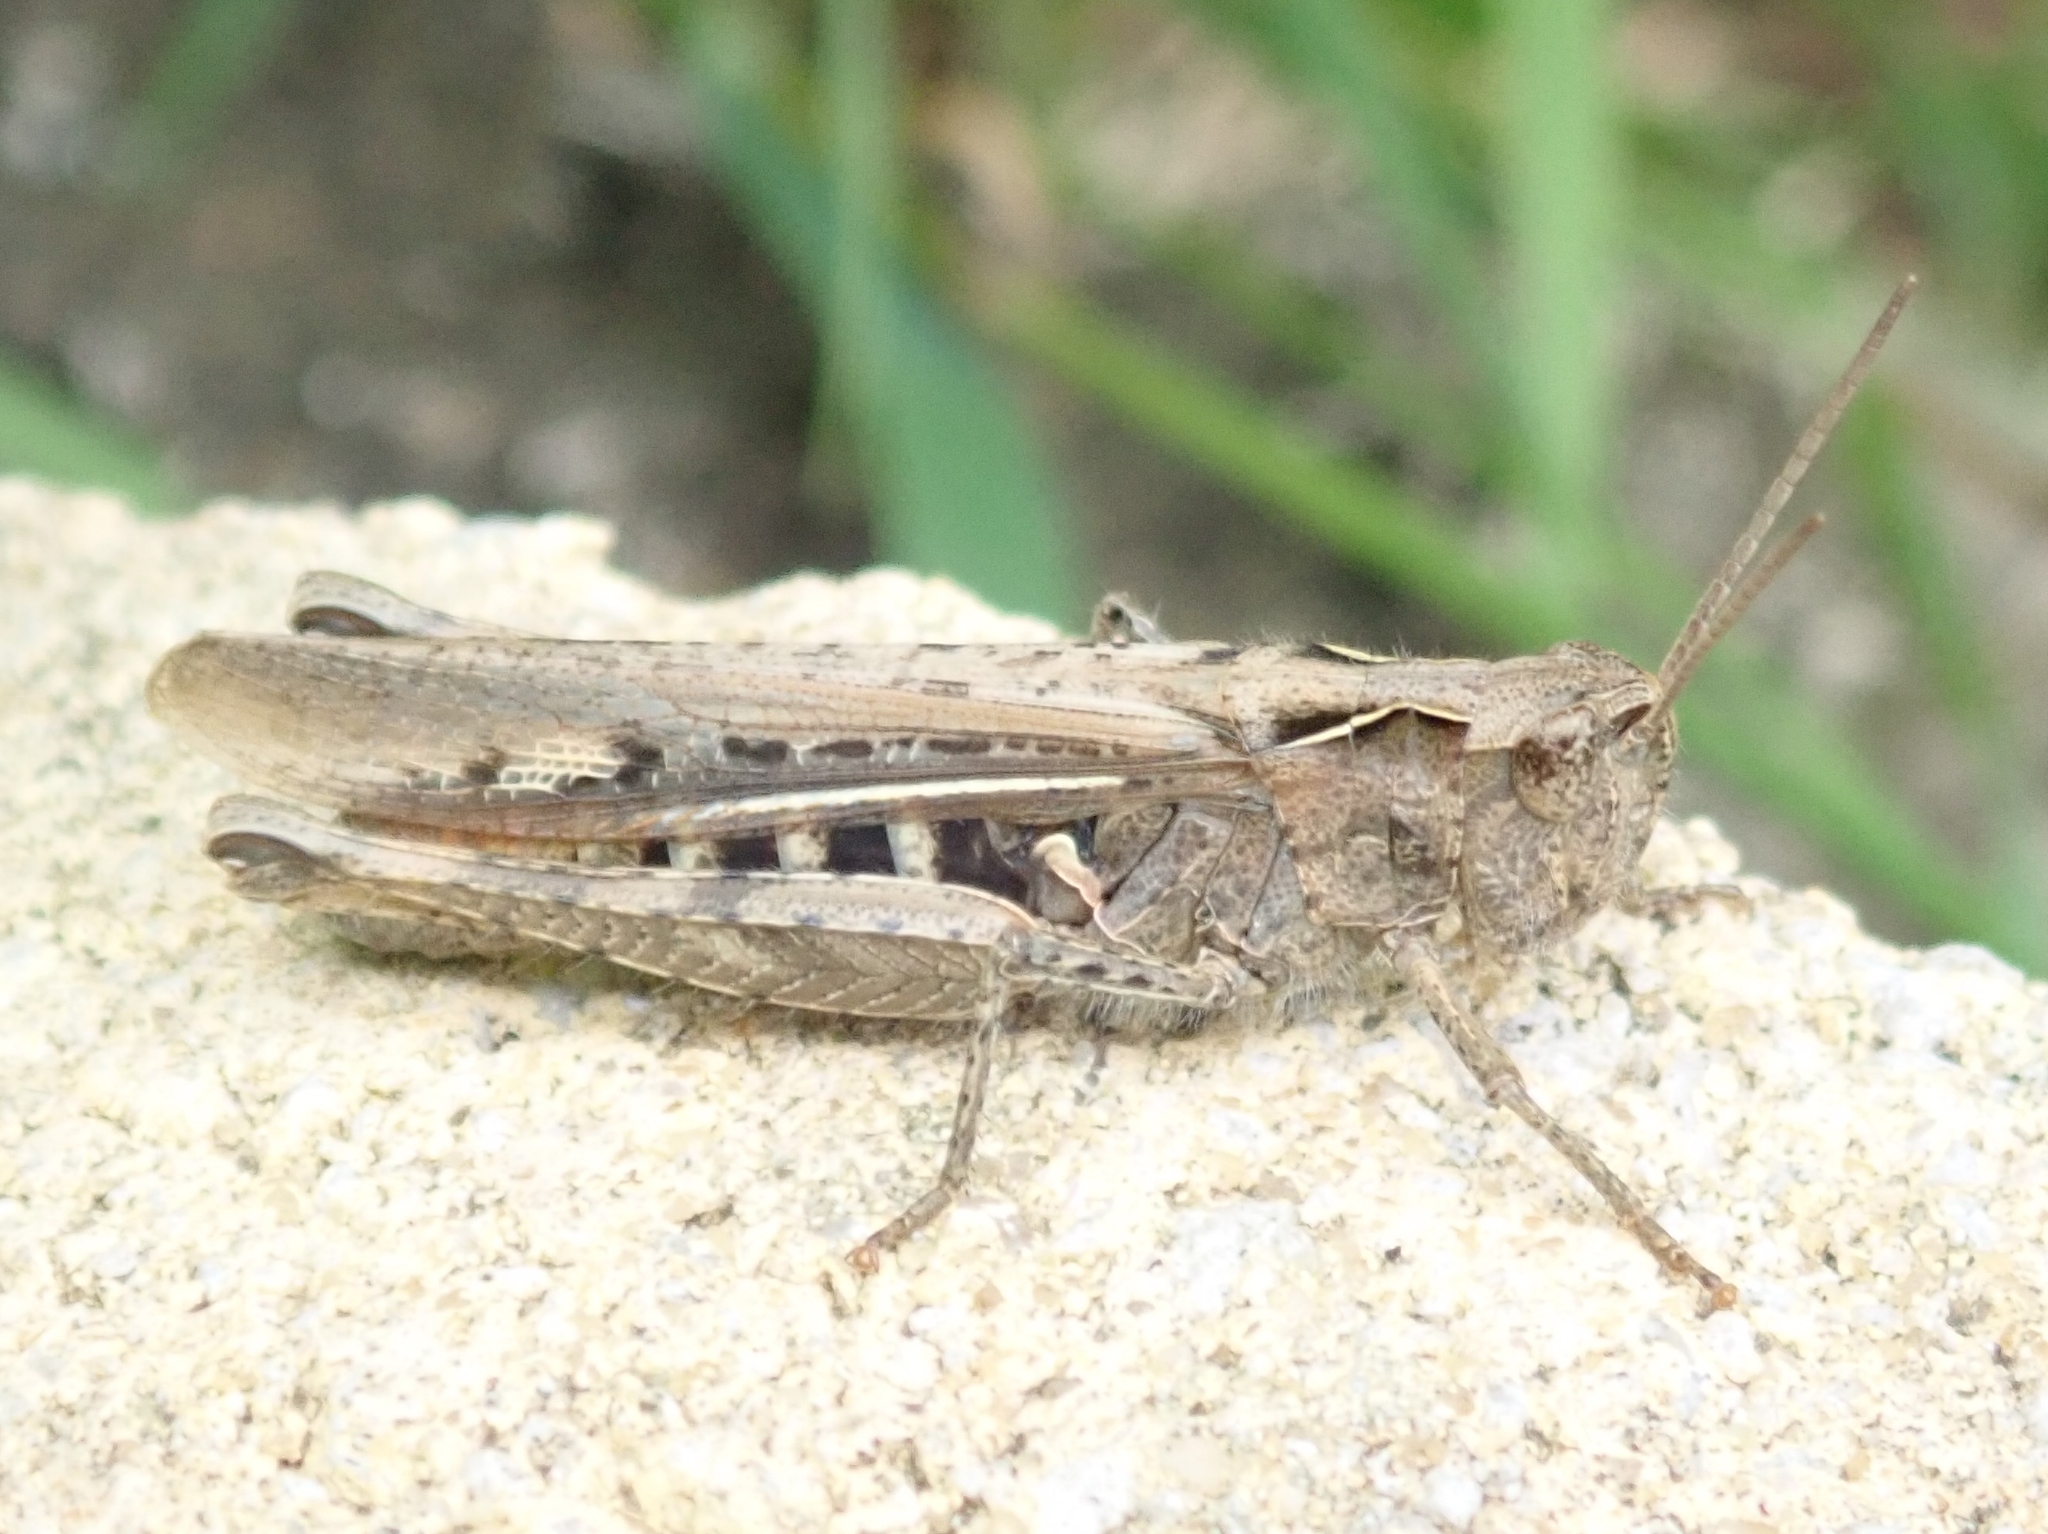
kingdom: Animalia
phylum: Arthropoda
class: Insecta
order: Orthoptera
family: Acrididae
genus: Chorthippus
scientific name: Chorthippus brunneus
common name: Field grasshopper
